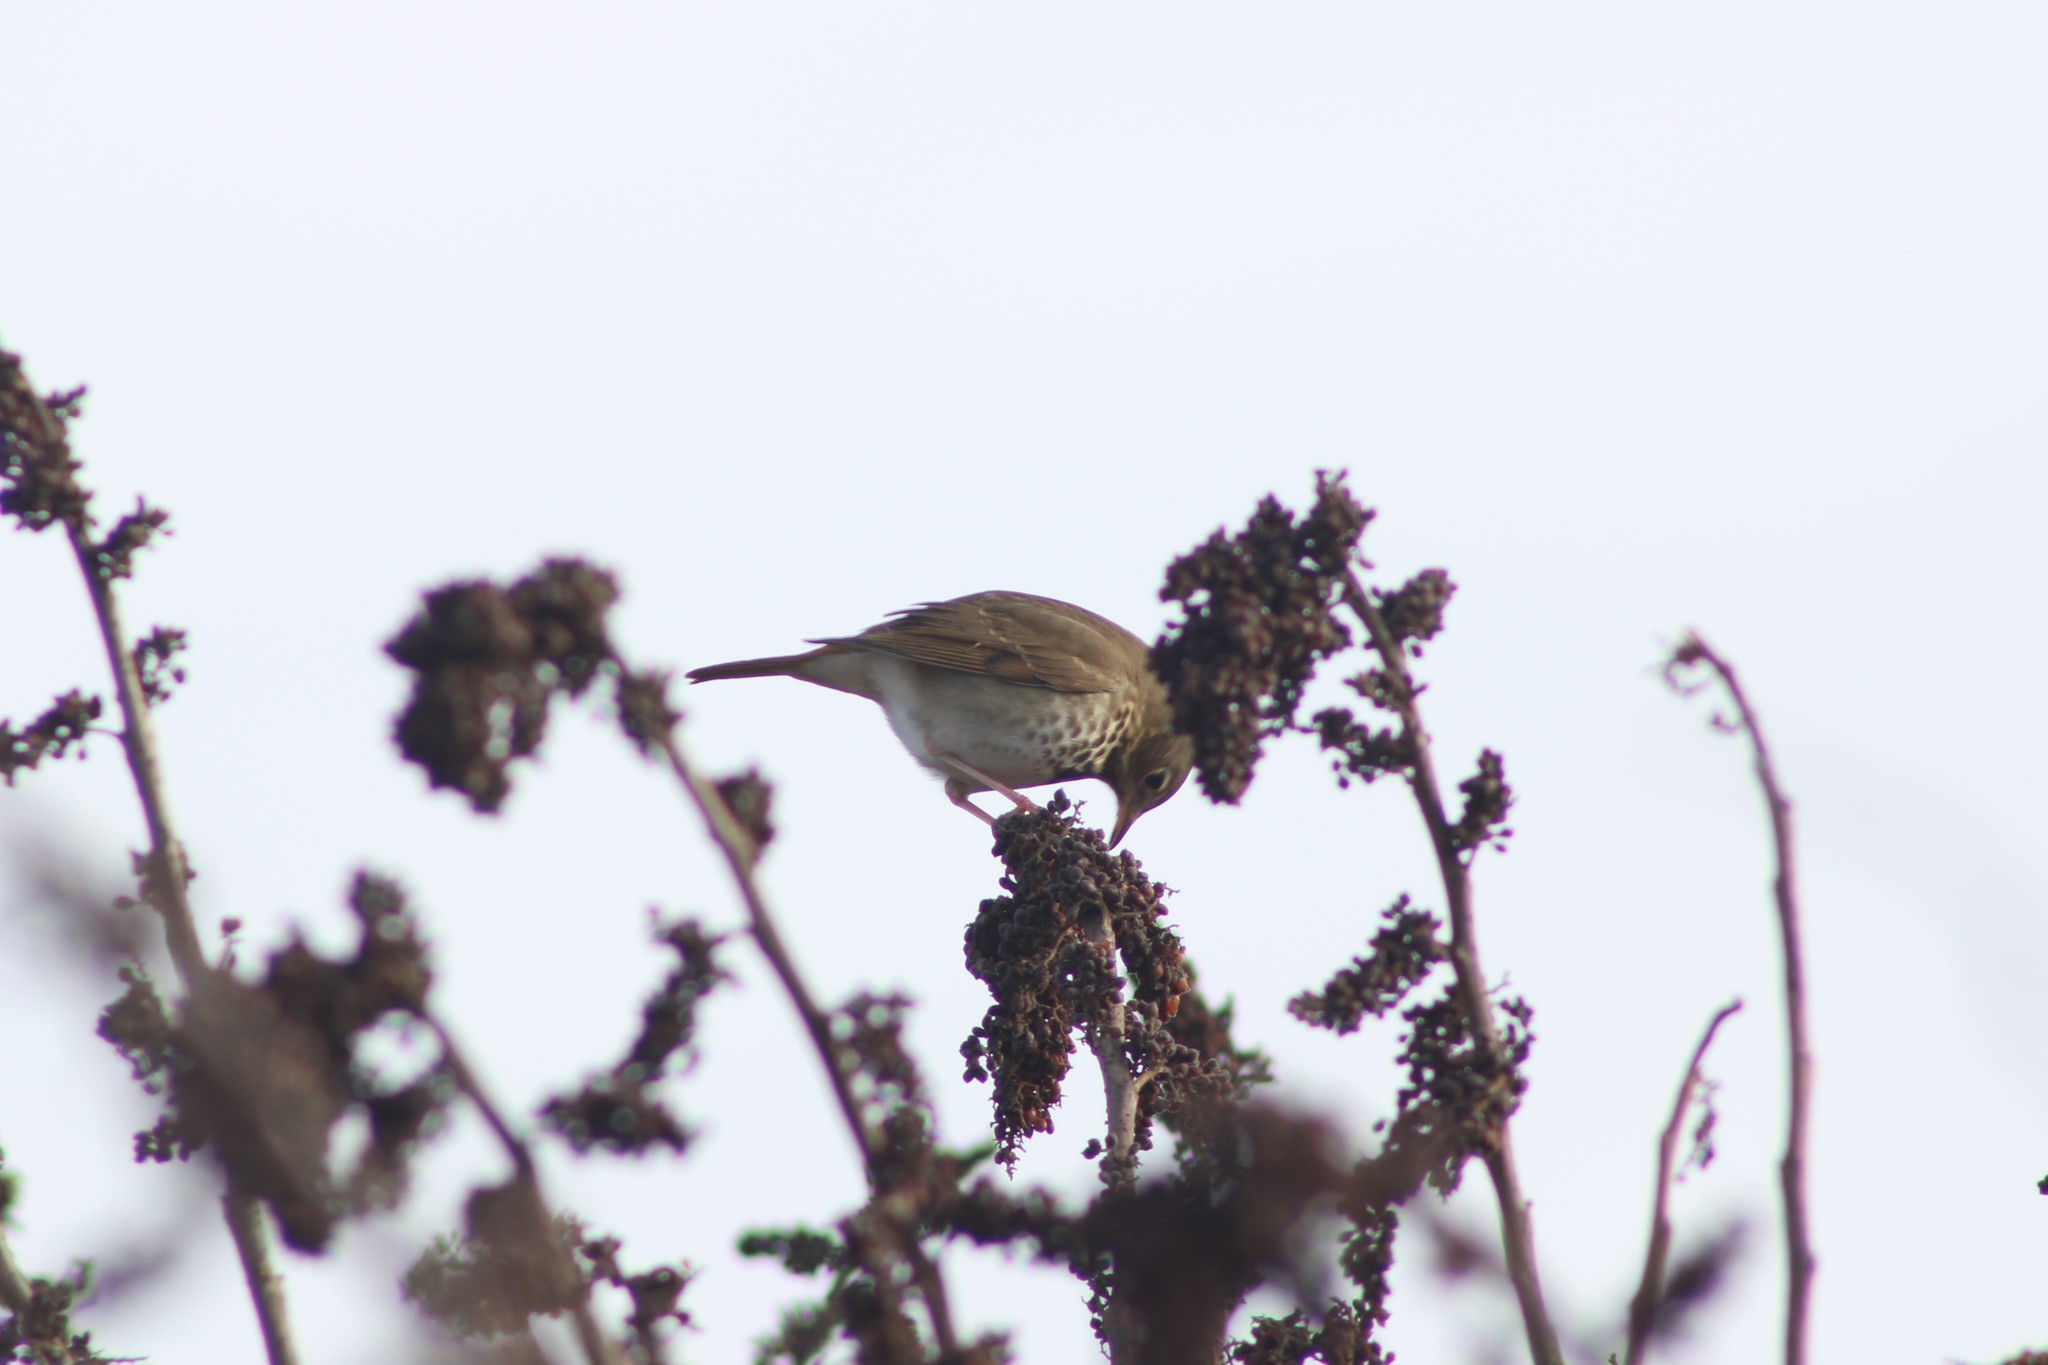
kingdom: Animalia
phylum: Chordata
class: Aves
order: Passeriformes
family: Turdidae
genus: Catharus
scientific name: Catharus guttatus
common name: Hermit thrush
